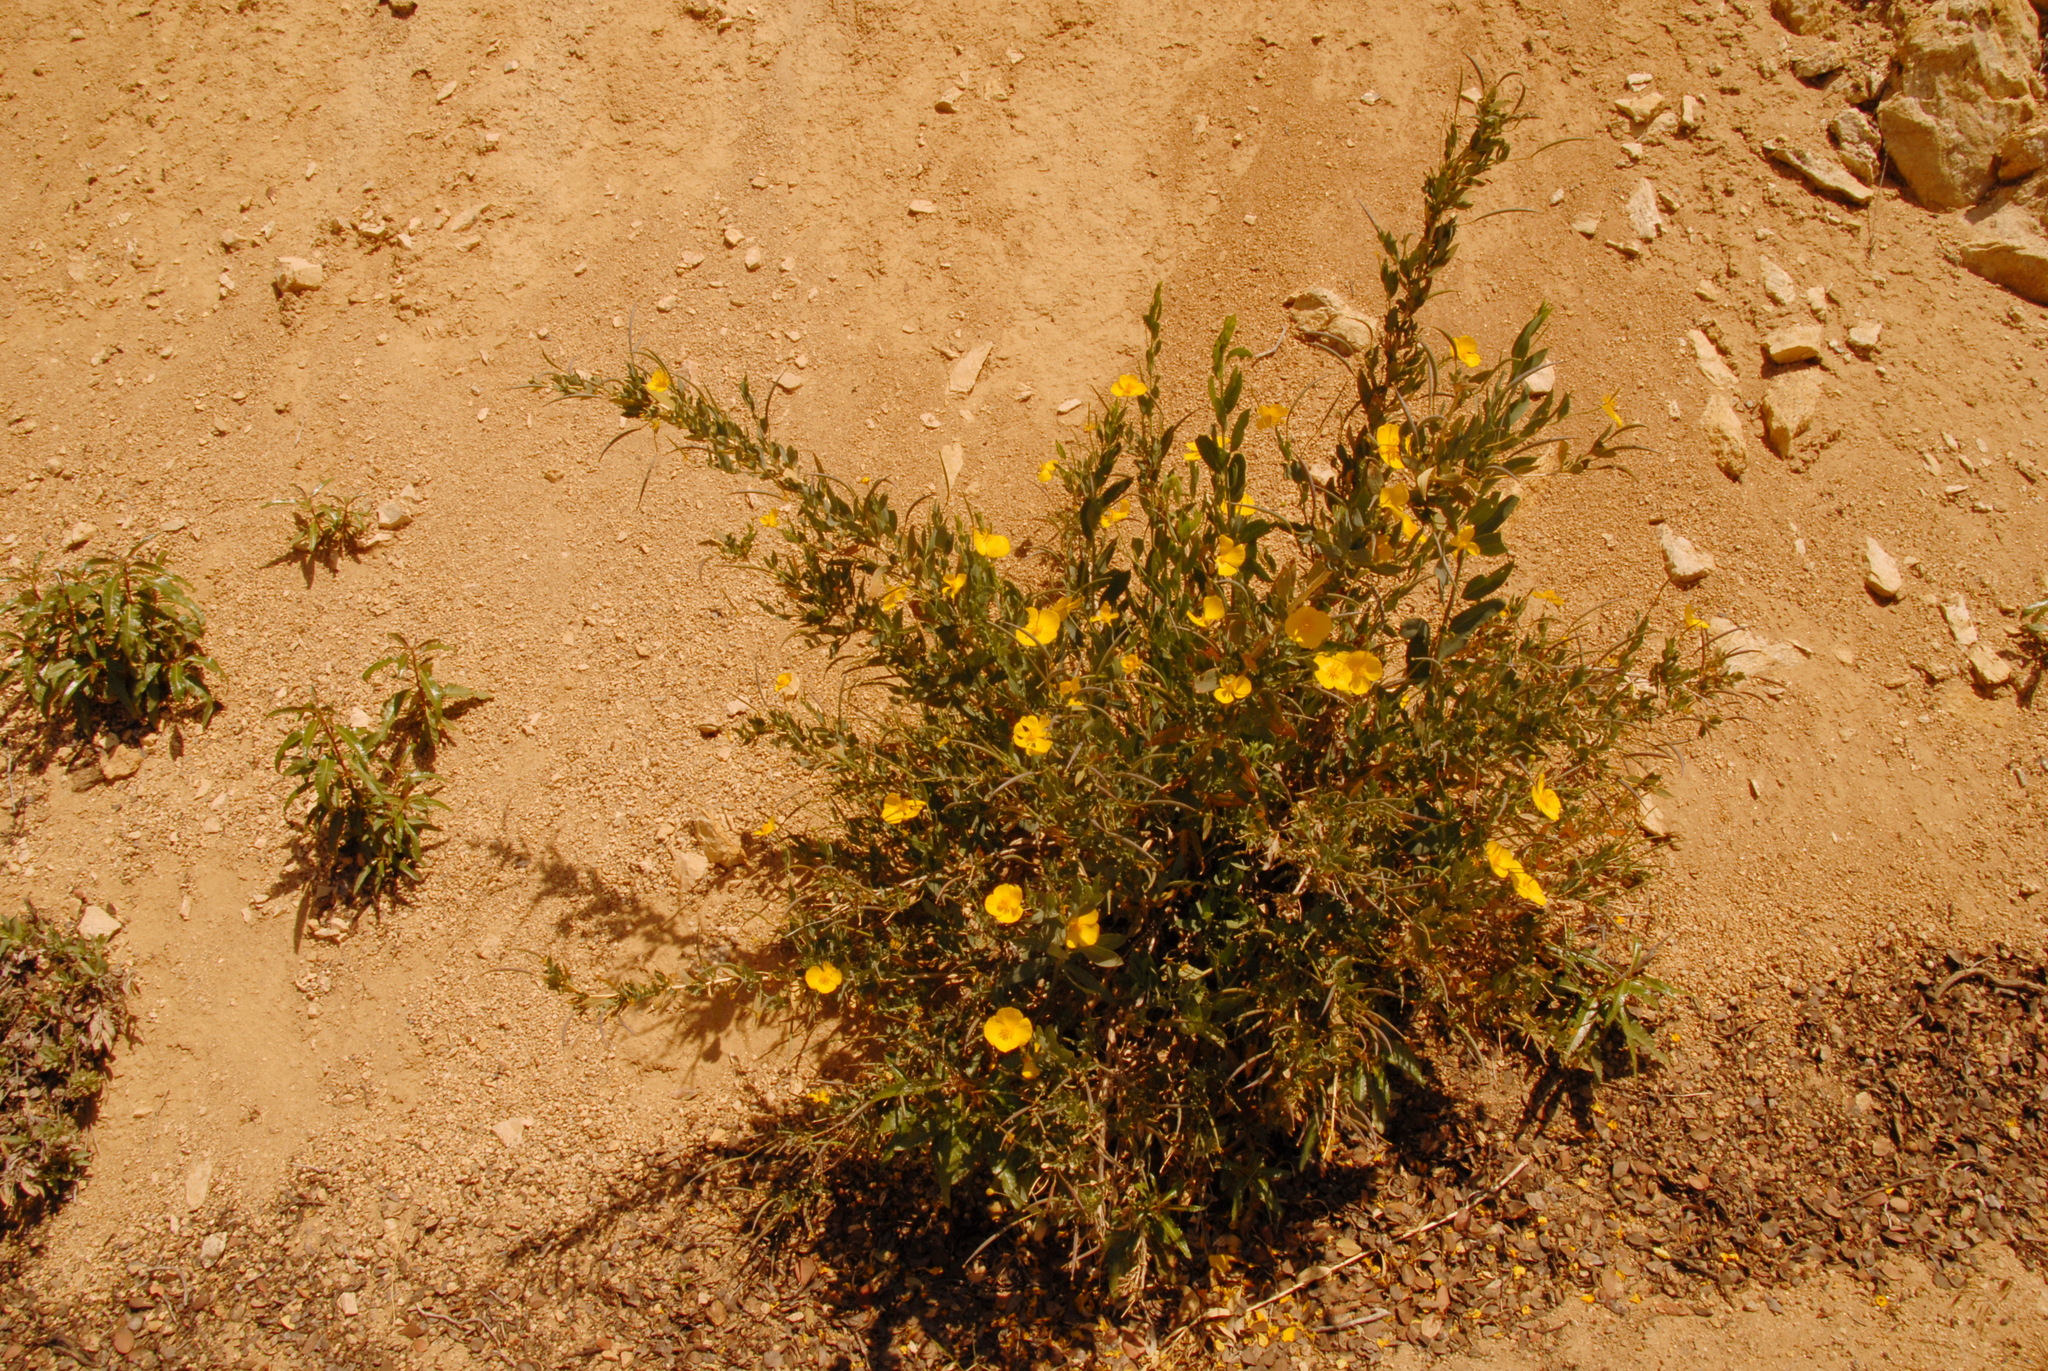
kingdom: Plantae
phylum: Tracheophyta
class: Magnoliopsida
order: Ranunculales
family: Papaveraceae
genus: Dendromecon
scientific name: Dendromecon rigida
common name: Tree poppy
